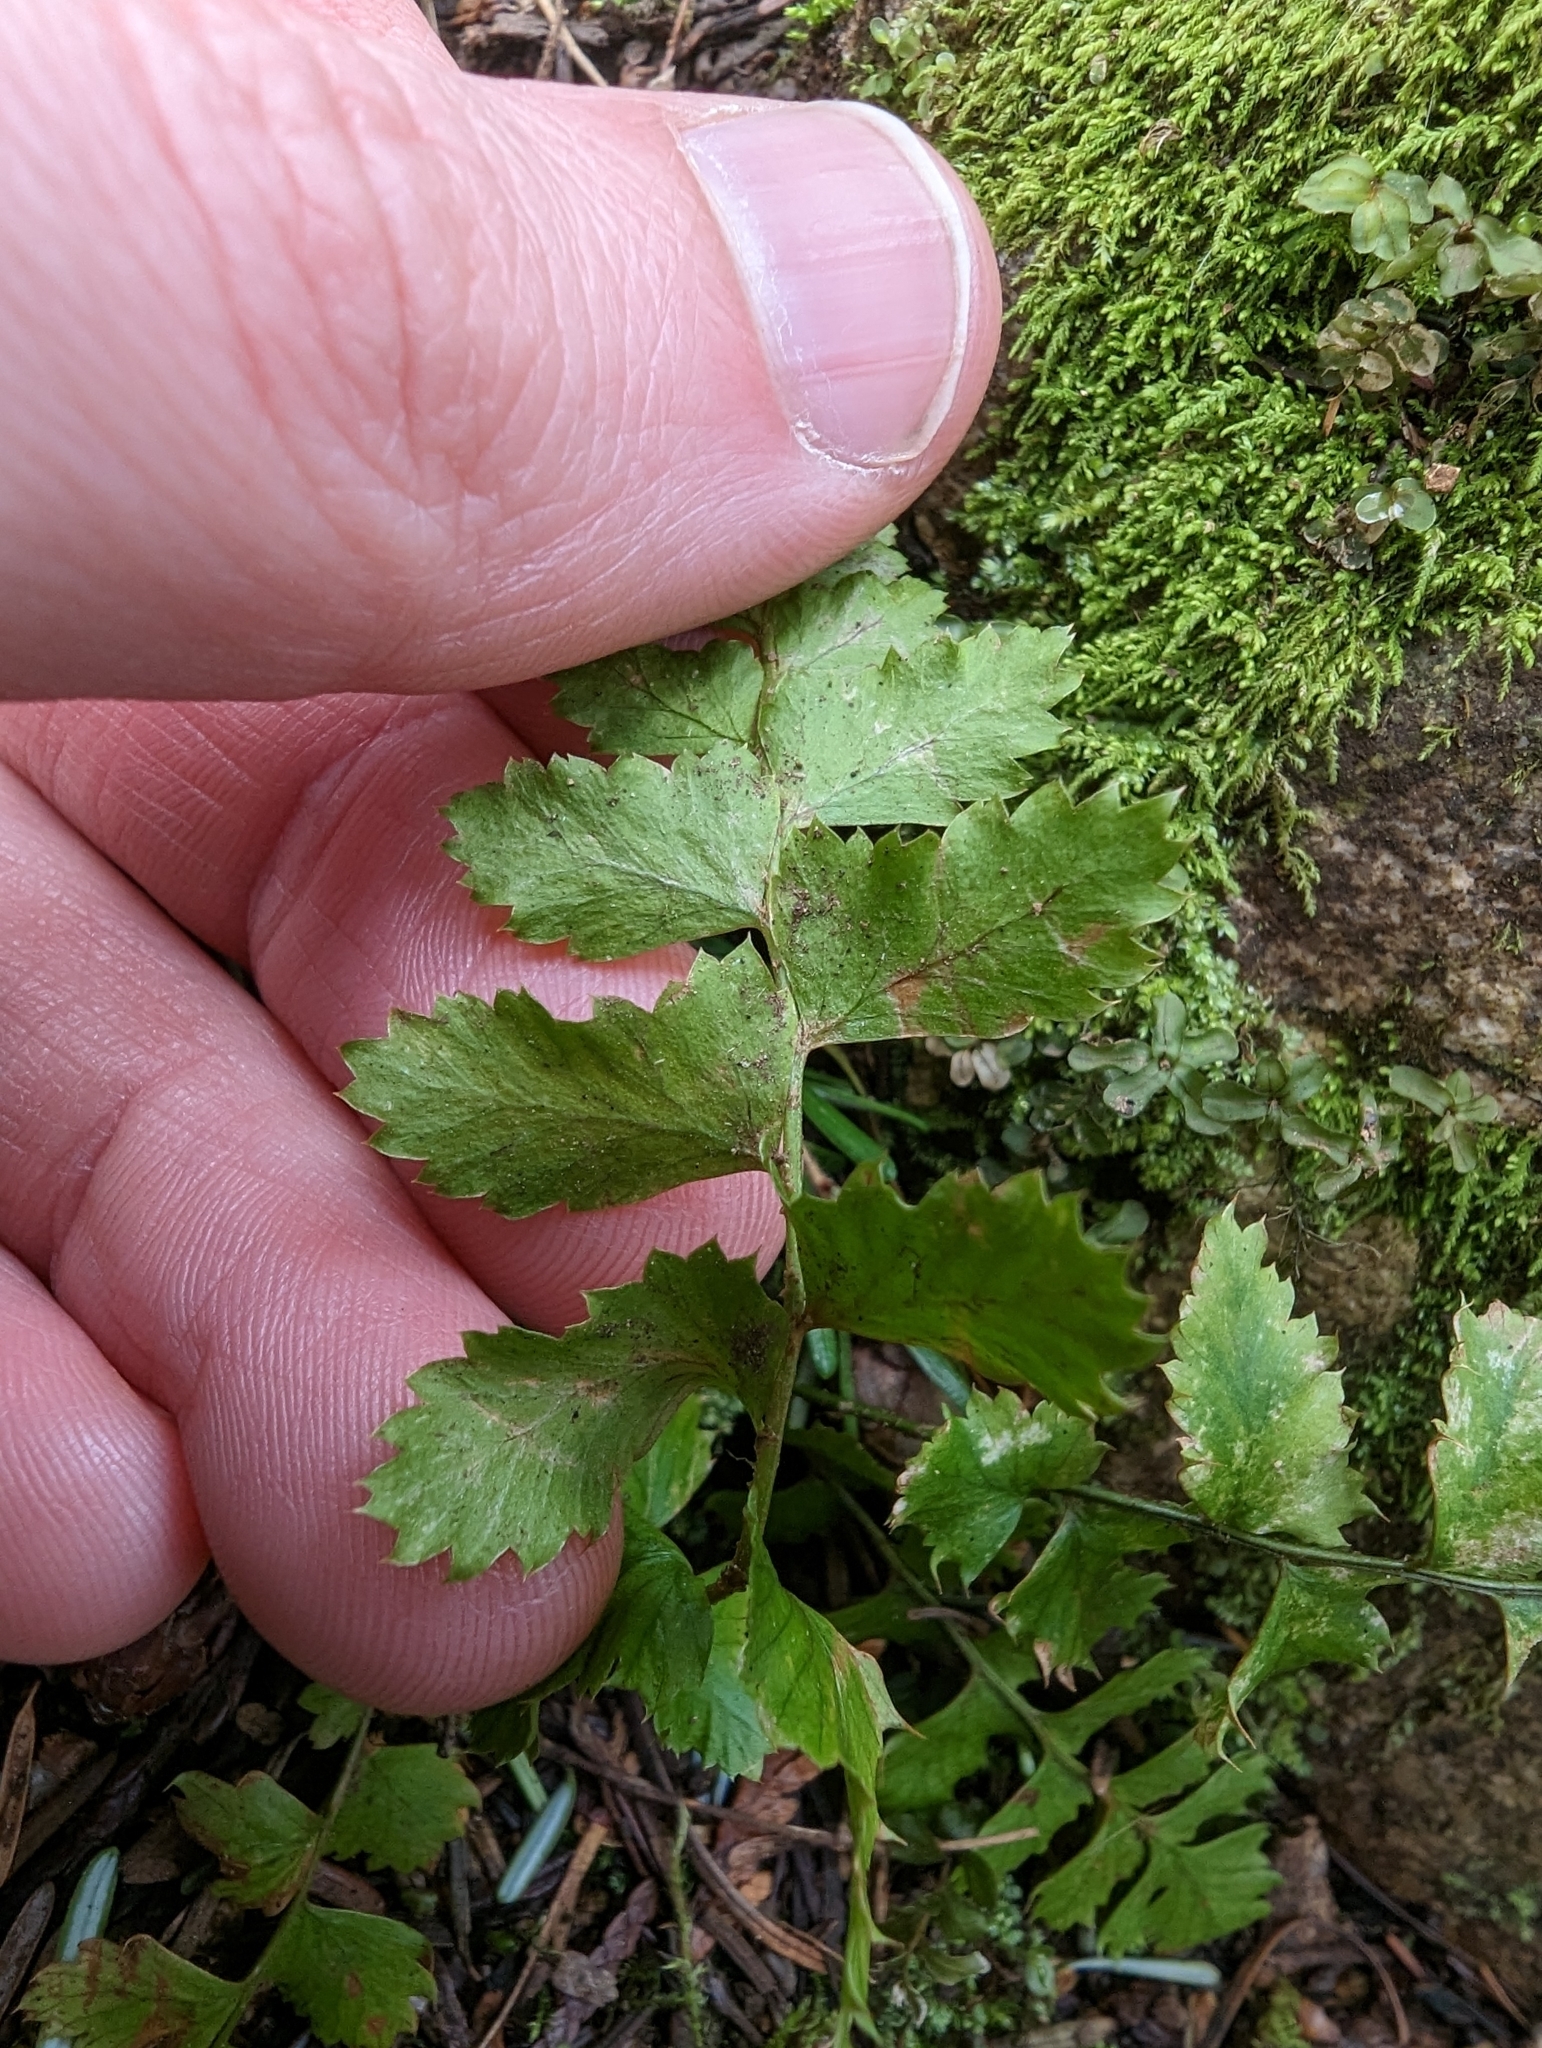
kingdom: Plantae
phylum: Tracheophyta
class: Polypodiopsida
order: Polypodiales
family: Dryopteridaceae
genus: Polystichum
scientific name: Polystichum munitum
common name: Western sword-fern
